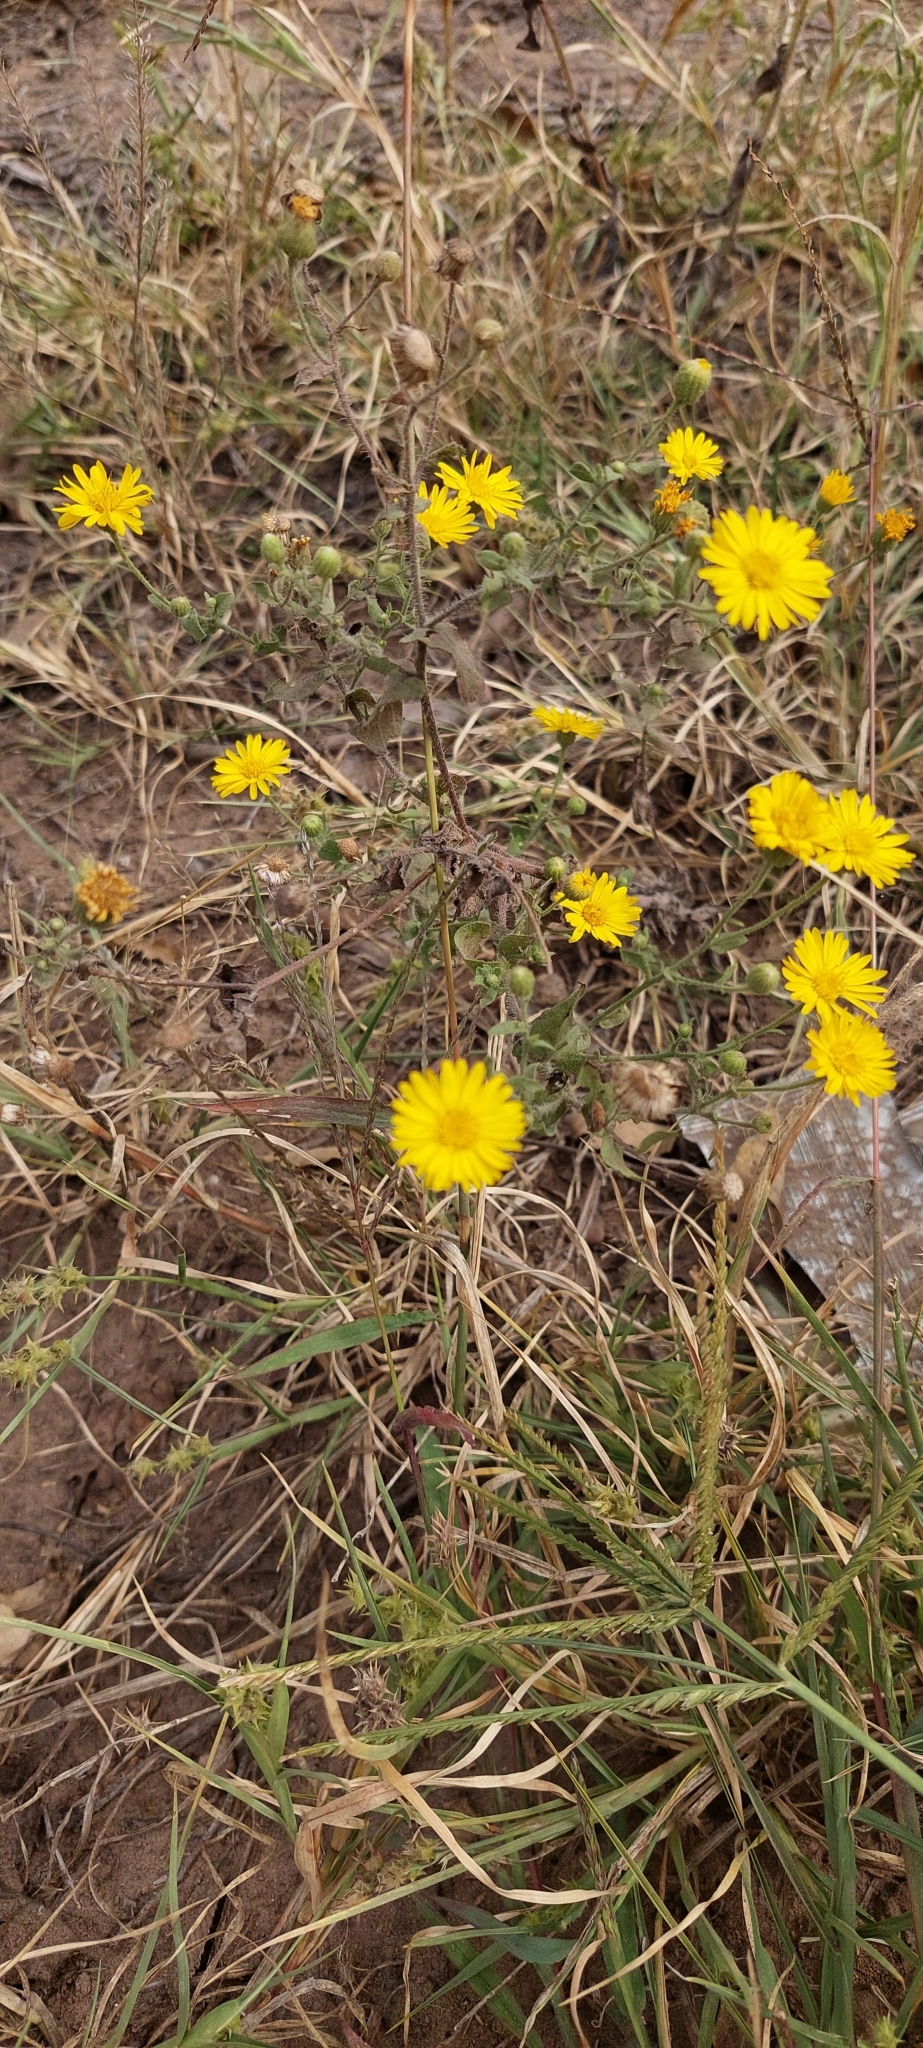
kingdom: Plantae
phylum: Tracheophyta
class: Magnoliopsida
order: Asterales
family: Asteraceae
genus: Heterotheca
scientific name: Heterotheca subaxillaris
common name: Camphorweed
